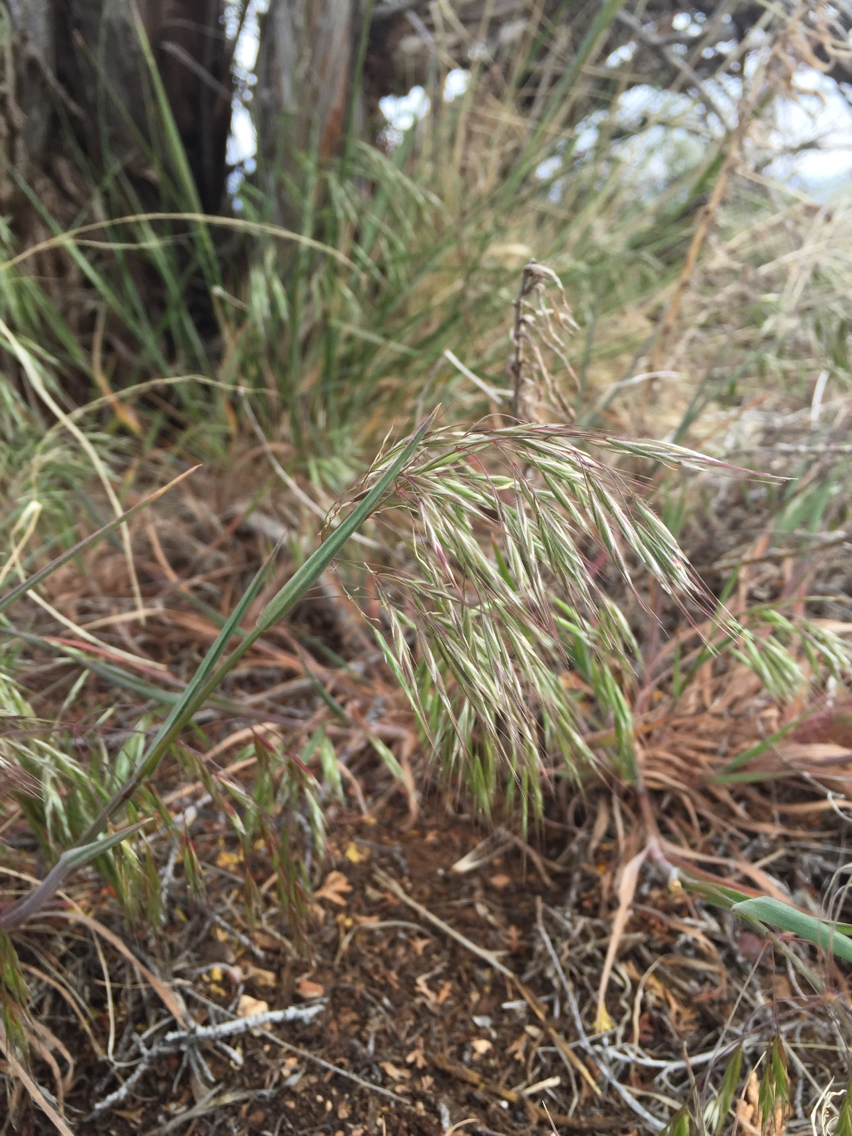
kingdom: Plantae
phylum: Tracheophyta
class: Liliopsida
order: Poales
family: Poaceae
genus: Bromus
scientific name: Bromus tectorum
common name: Cheatgrass
